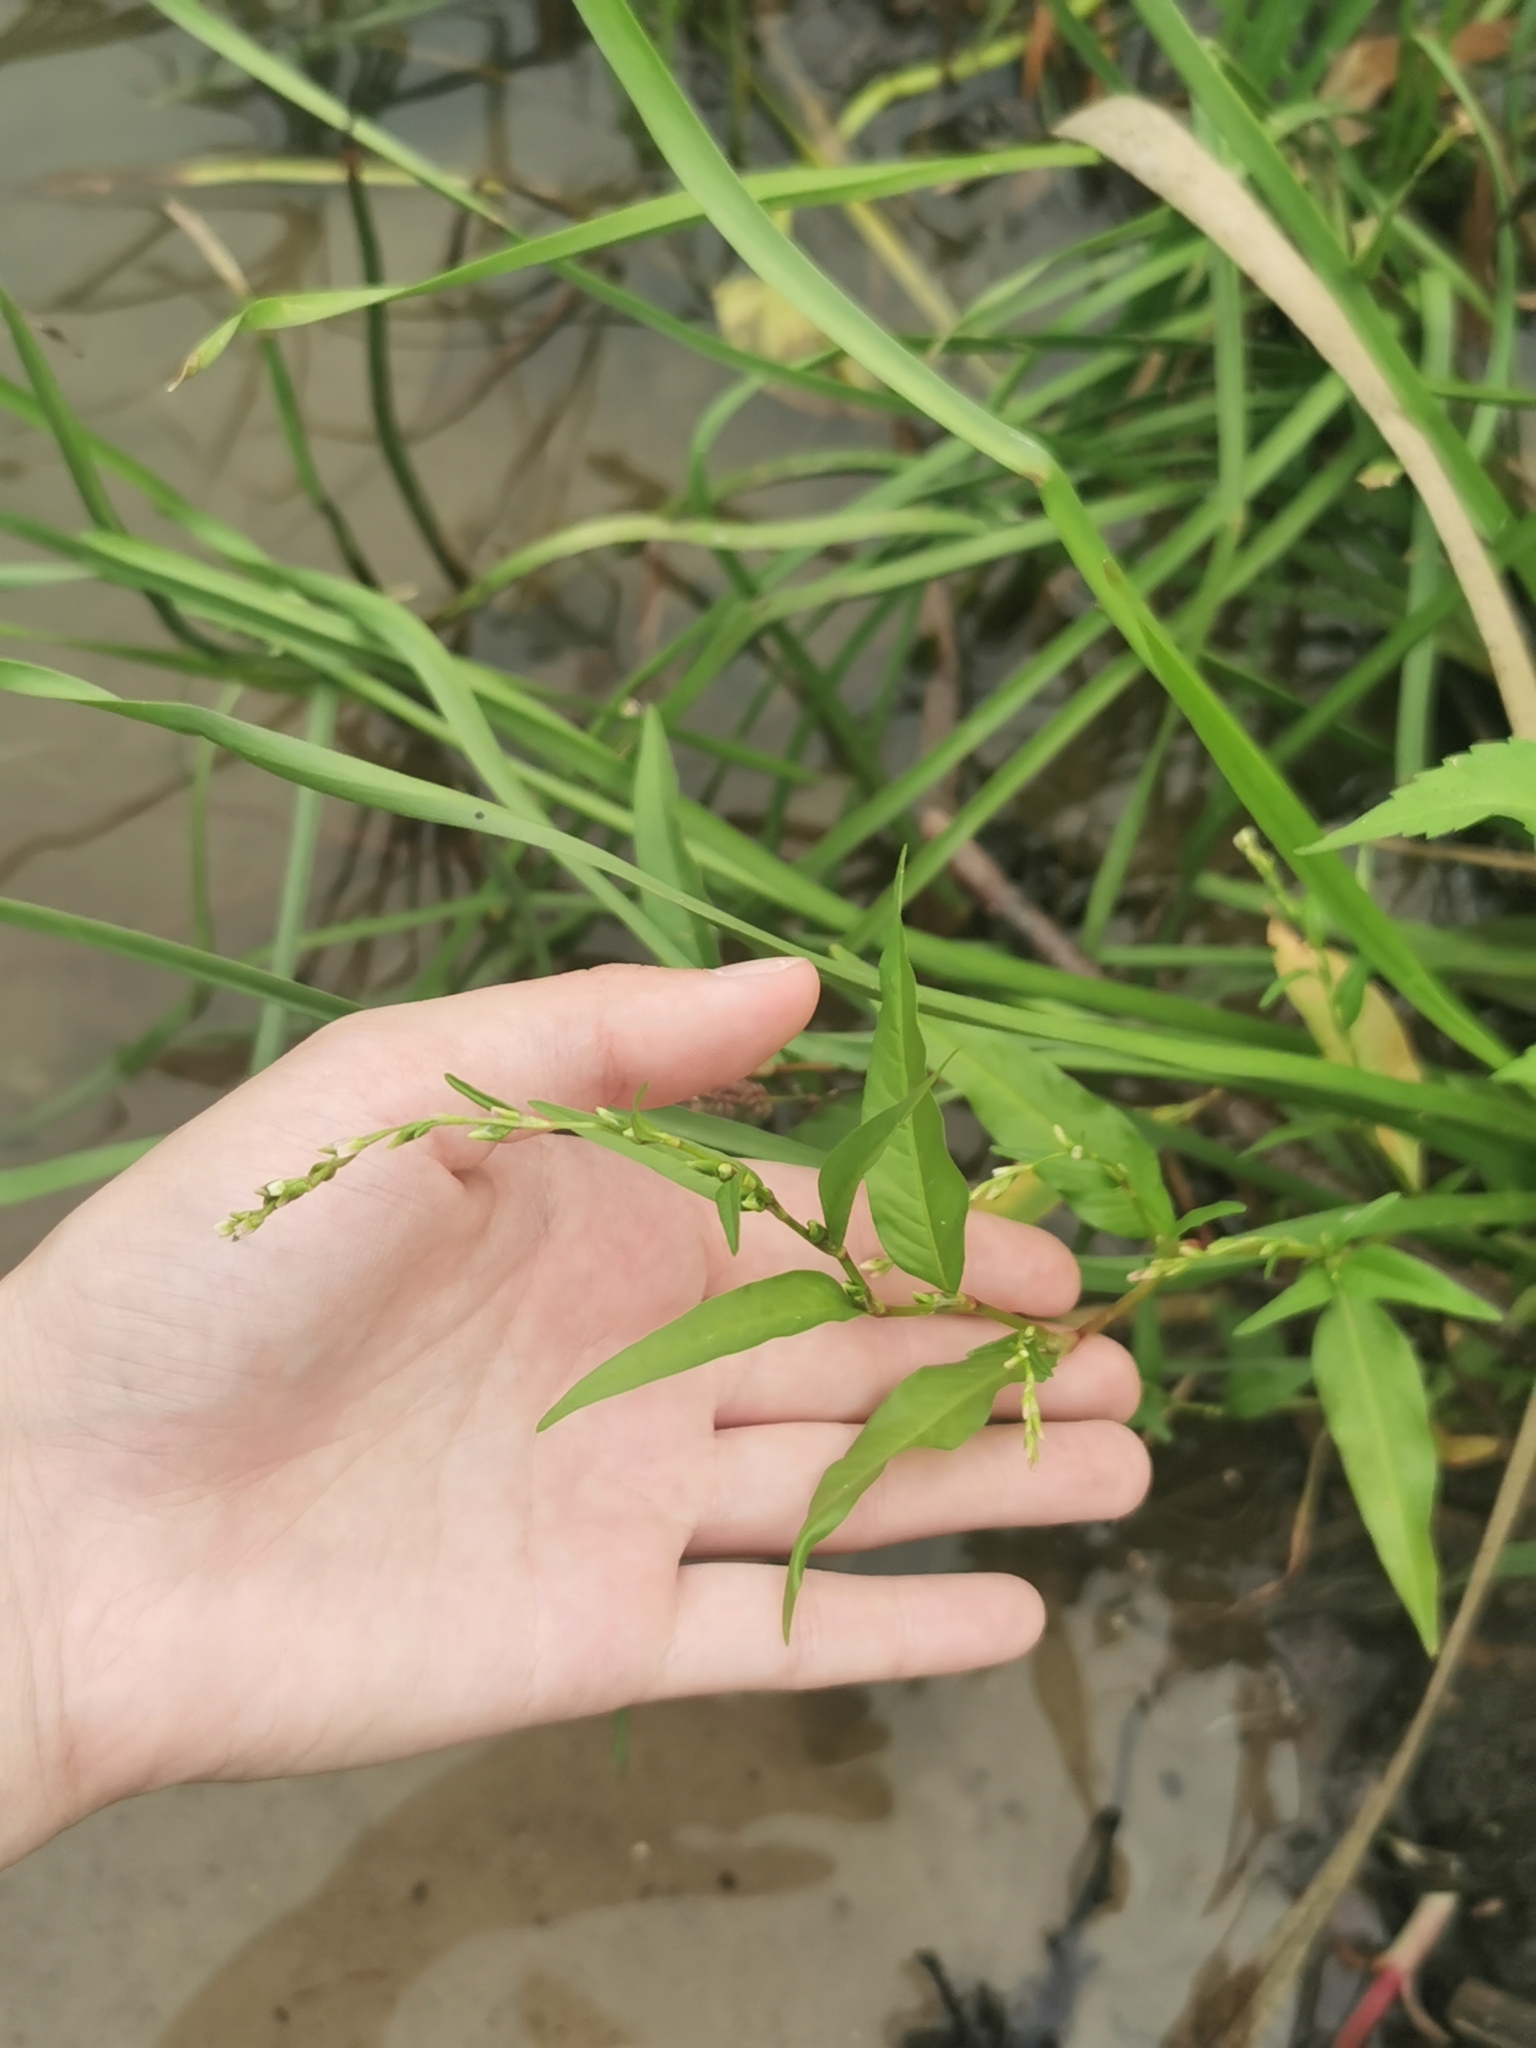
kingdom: Plantae
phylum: Tracheophyta
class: Magnoliopsida
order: Caryophyllales
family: Polygonaceae
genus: Persicaria
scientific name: Persicaria hydropiper
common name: Water-pepper
